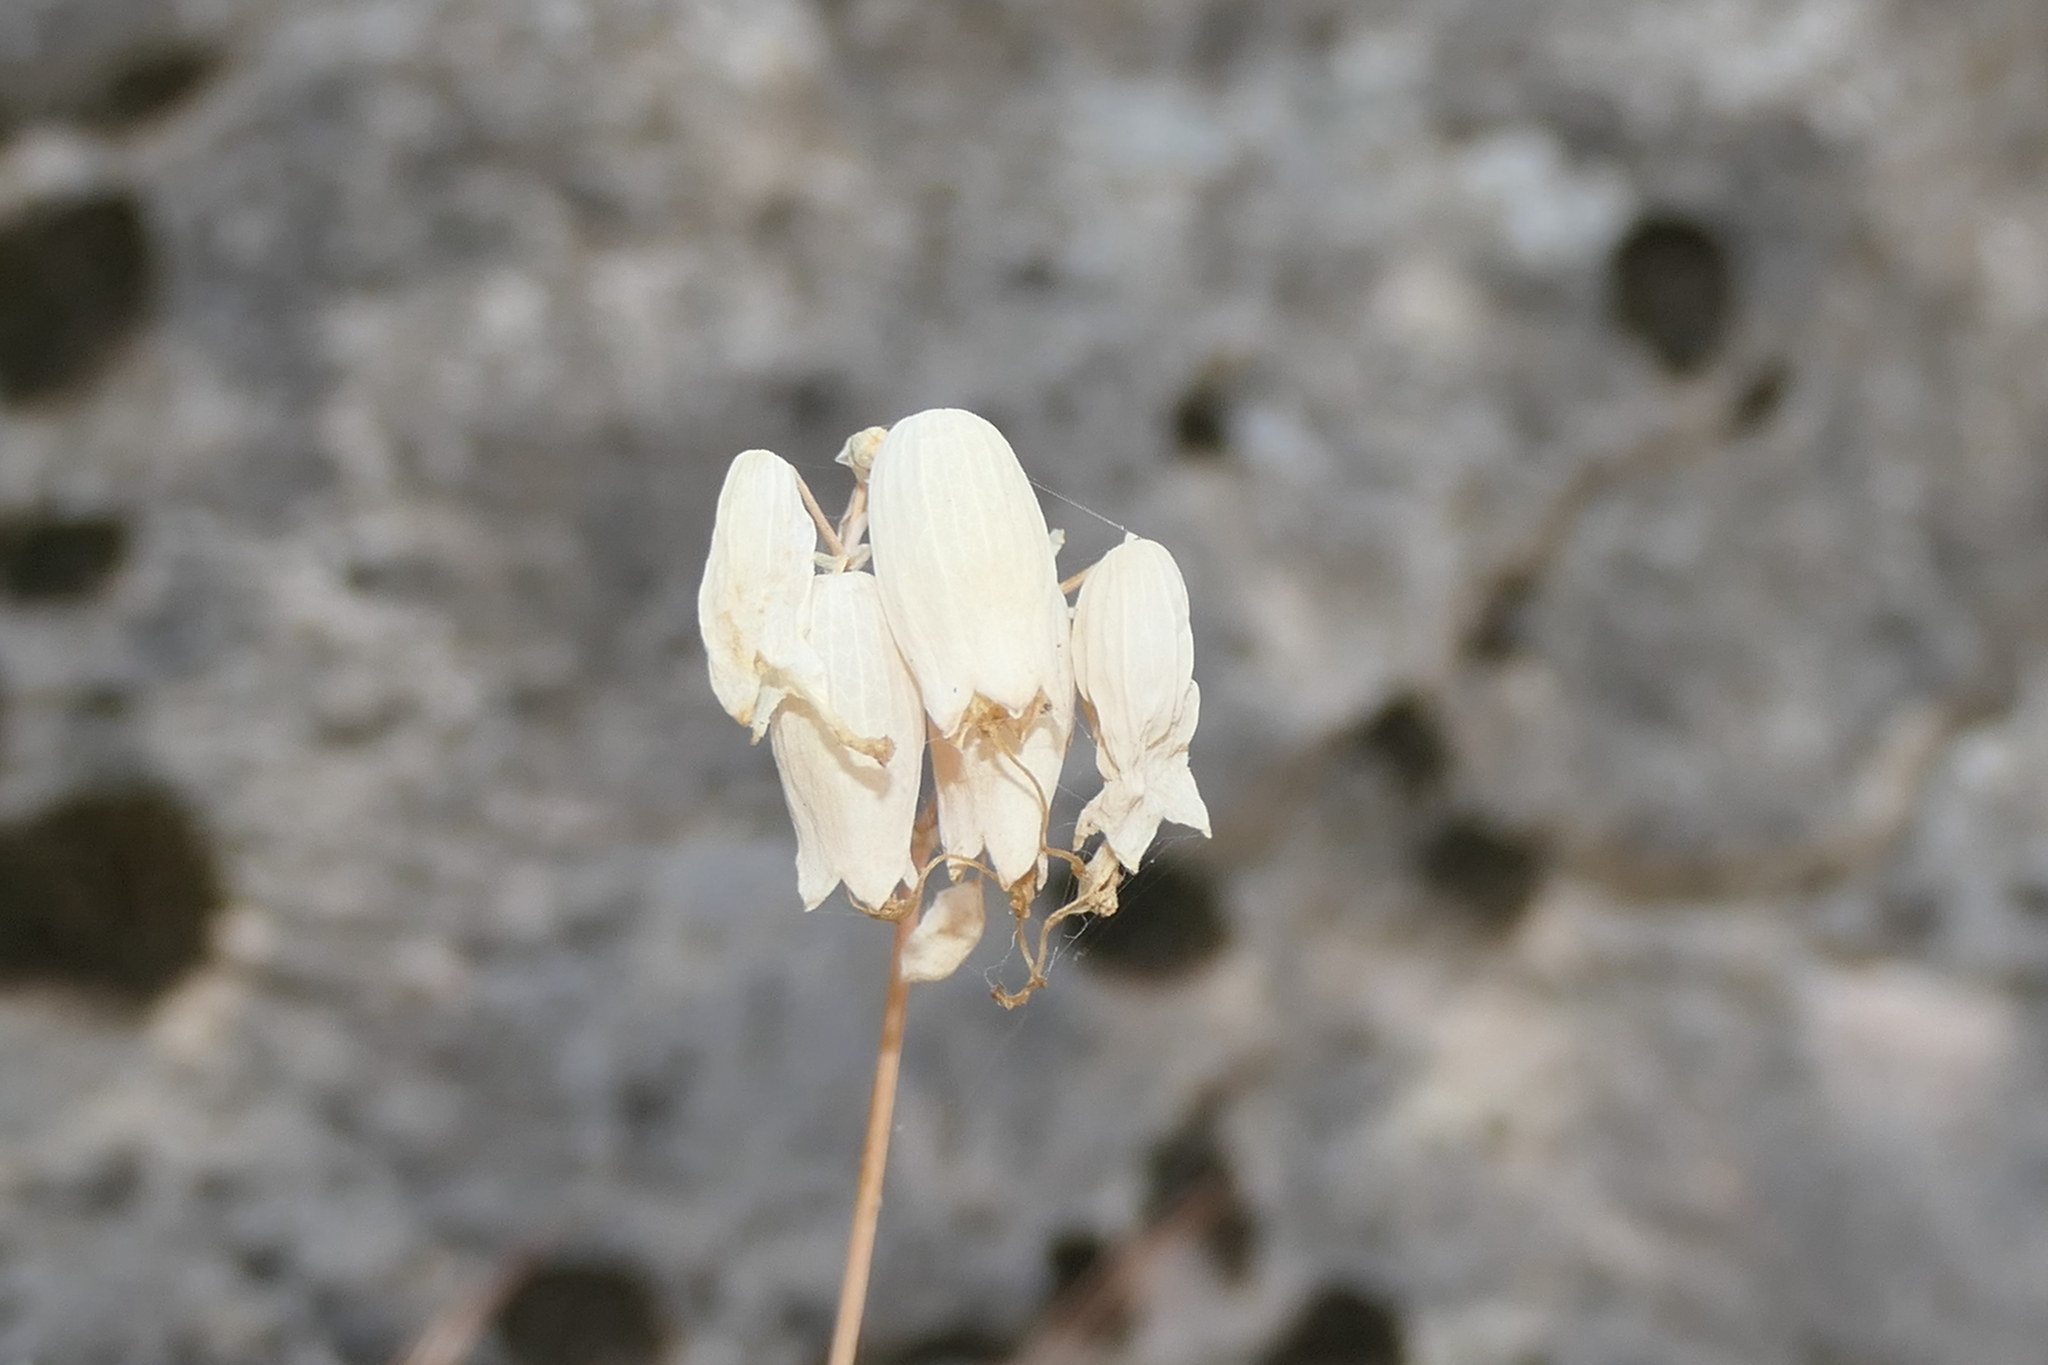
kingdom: Plantae
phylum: Tracheophyta
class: Magnoliopsida
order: Caryophyllales
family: Caryophyllaceae
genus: Silene
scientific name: Silene vulgaris
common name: Bladder campion
